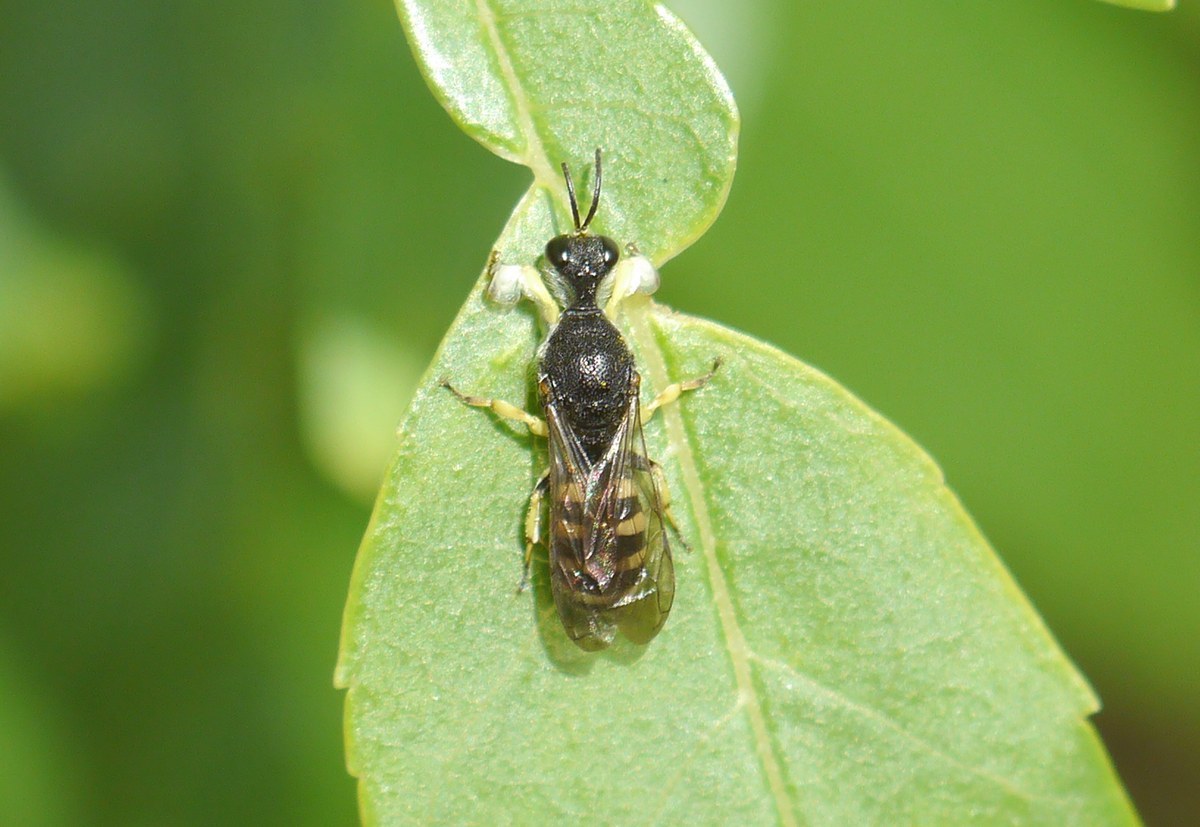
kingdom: Animalia
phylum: Arthropoda
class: Insecta
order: Hymenoptera
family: Crabronidae
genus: Lestica
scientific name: Lestica clypeata
